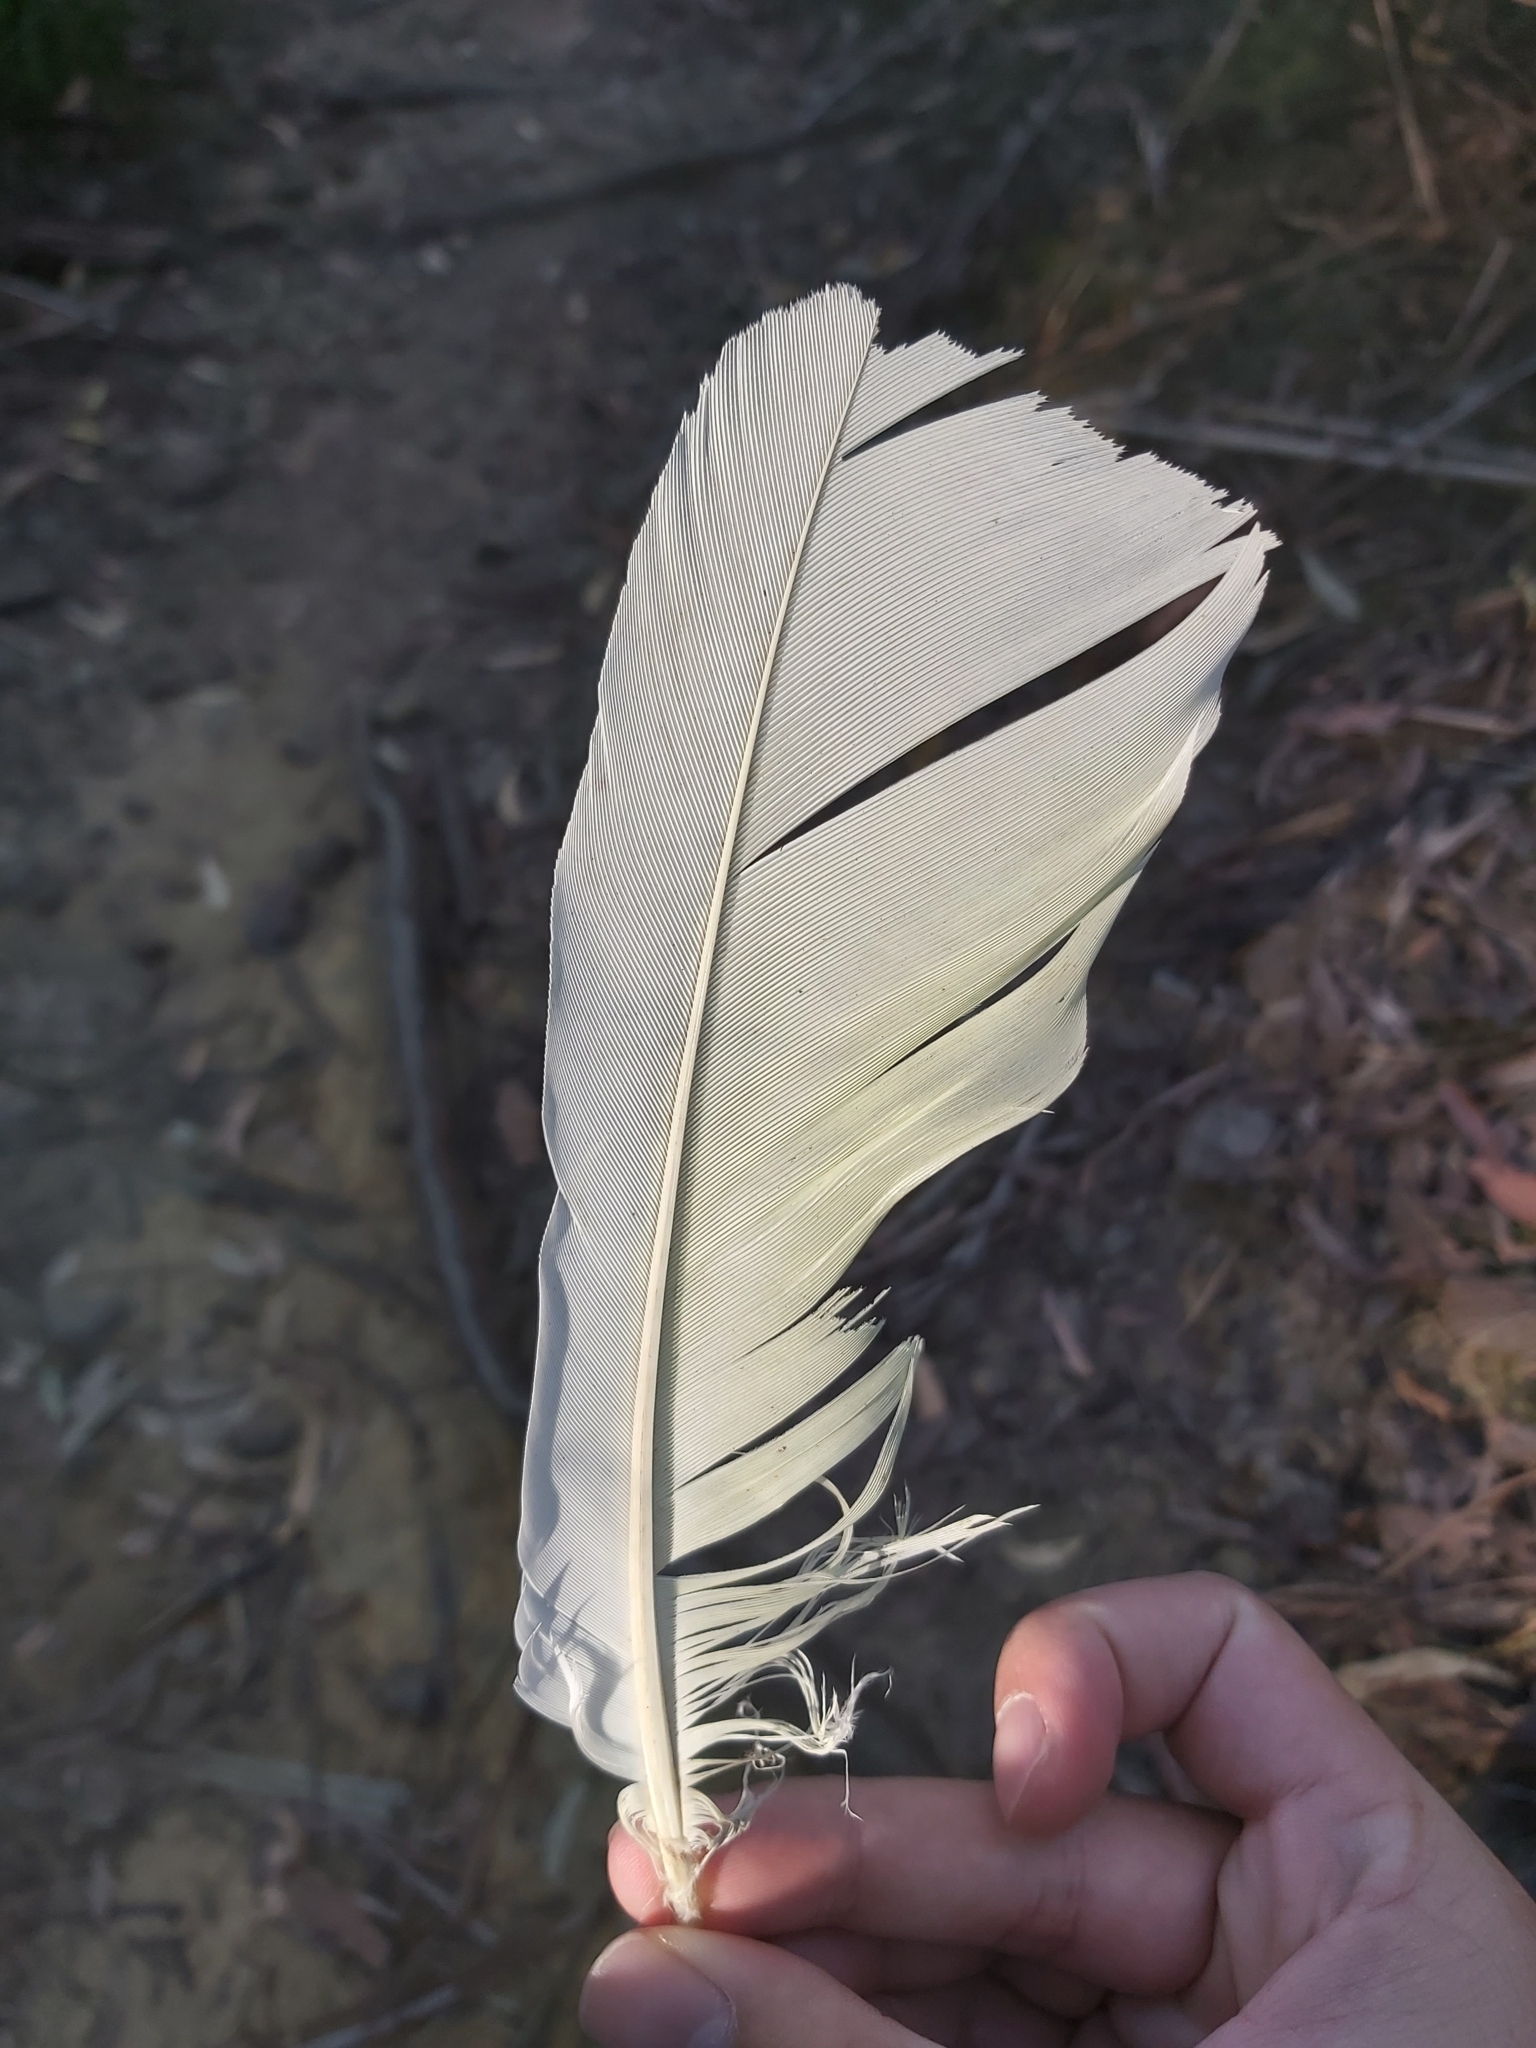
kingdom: Animalia
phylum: Chordata
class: Aves
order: Psittaciformes
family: Psittacidae
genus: Cacatua
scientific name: Cacatua galerita
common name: Sulphur-crested cockatoo
